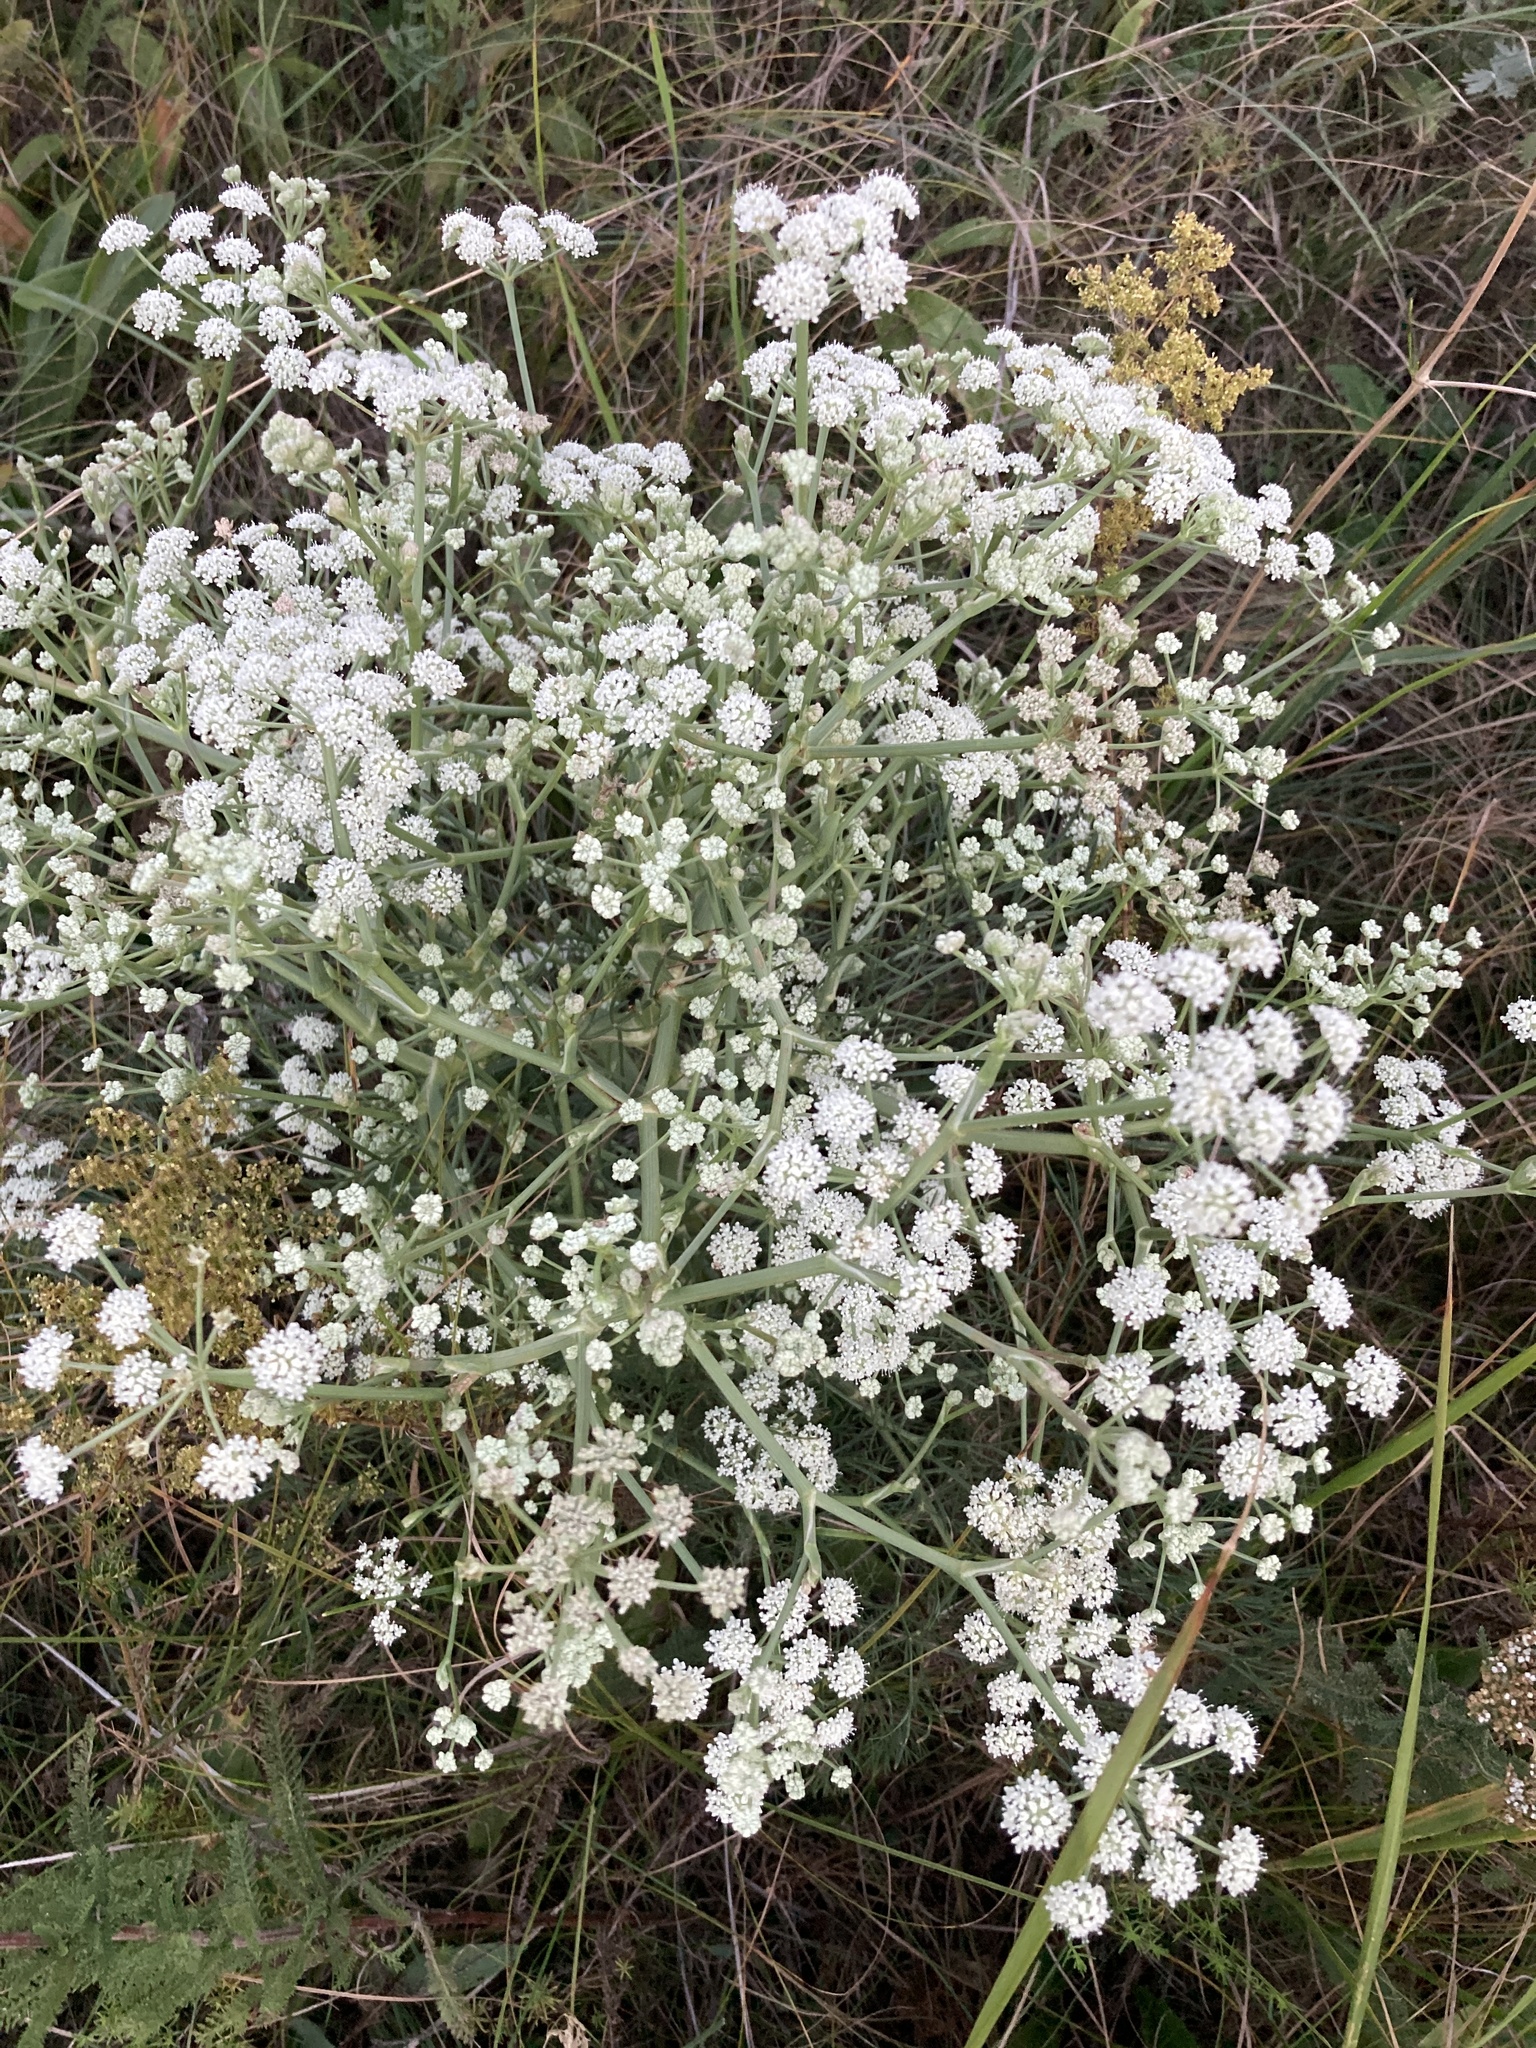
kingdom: Plantae
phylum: Tracheophyta
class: Magnoliopsida
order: Apiales
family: Apiaceae
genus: Seseli
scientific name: Seseli arenarium
